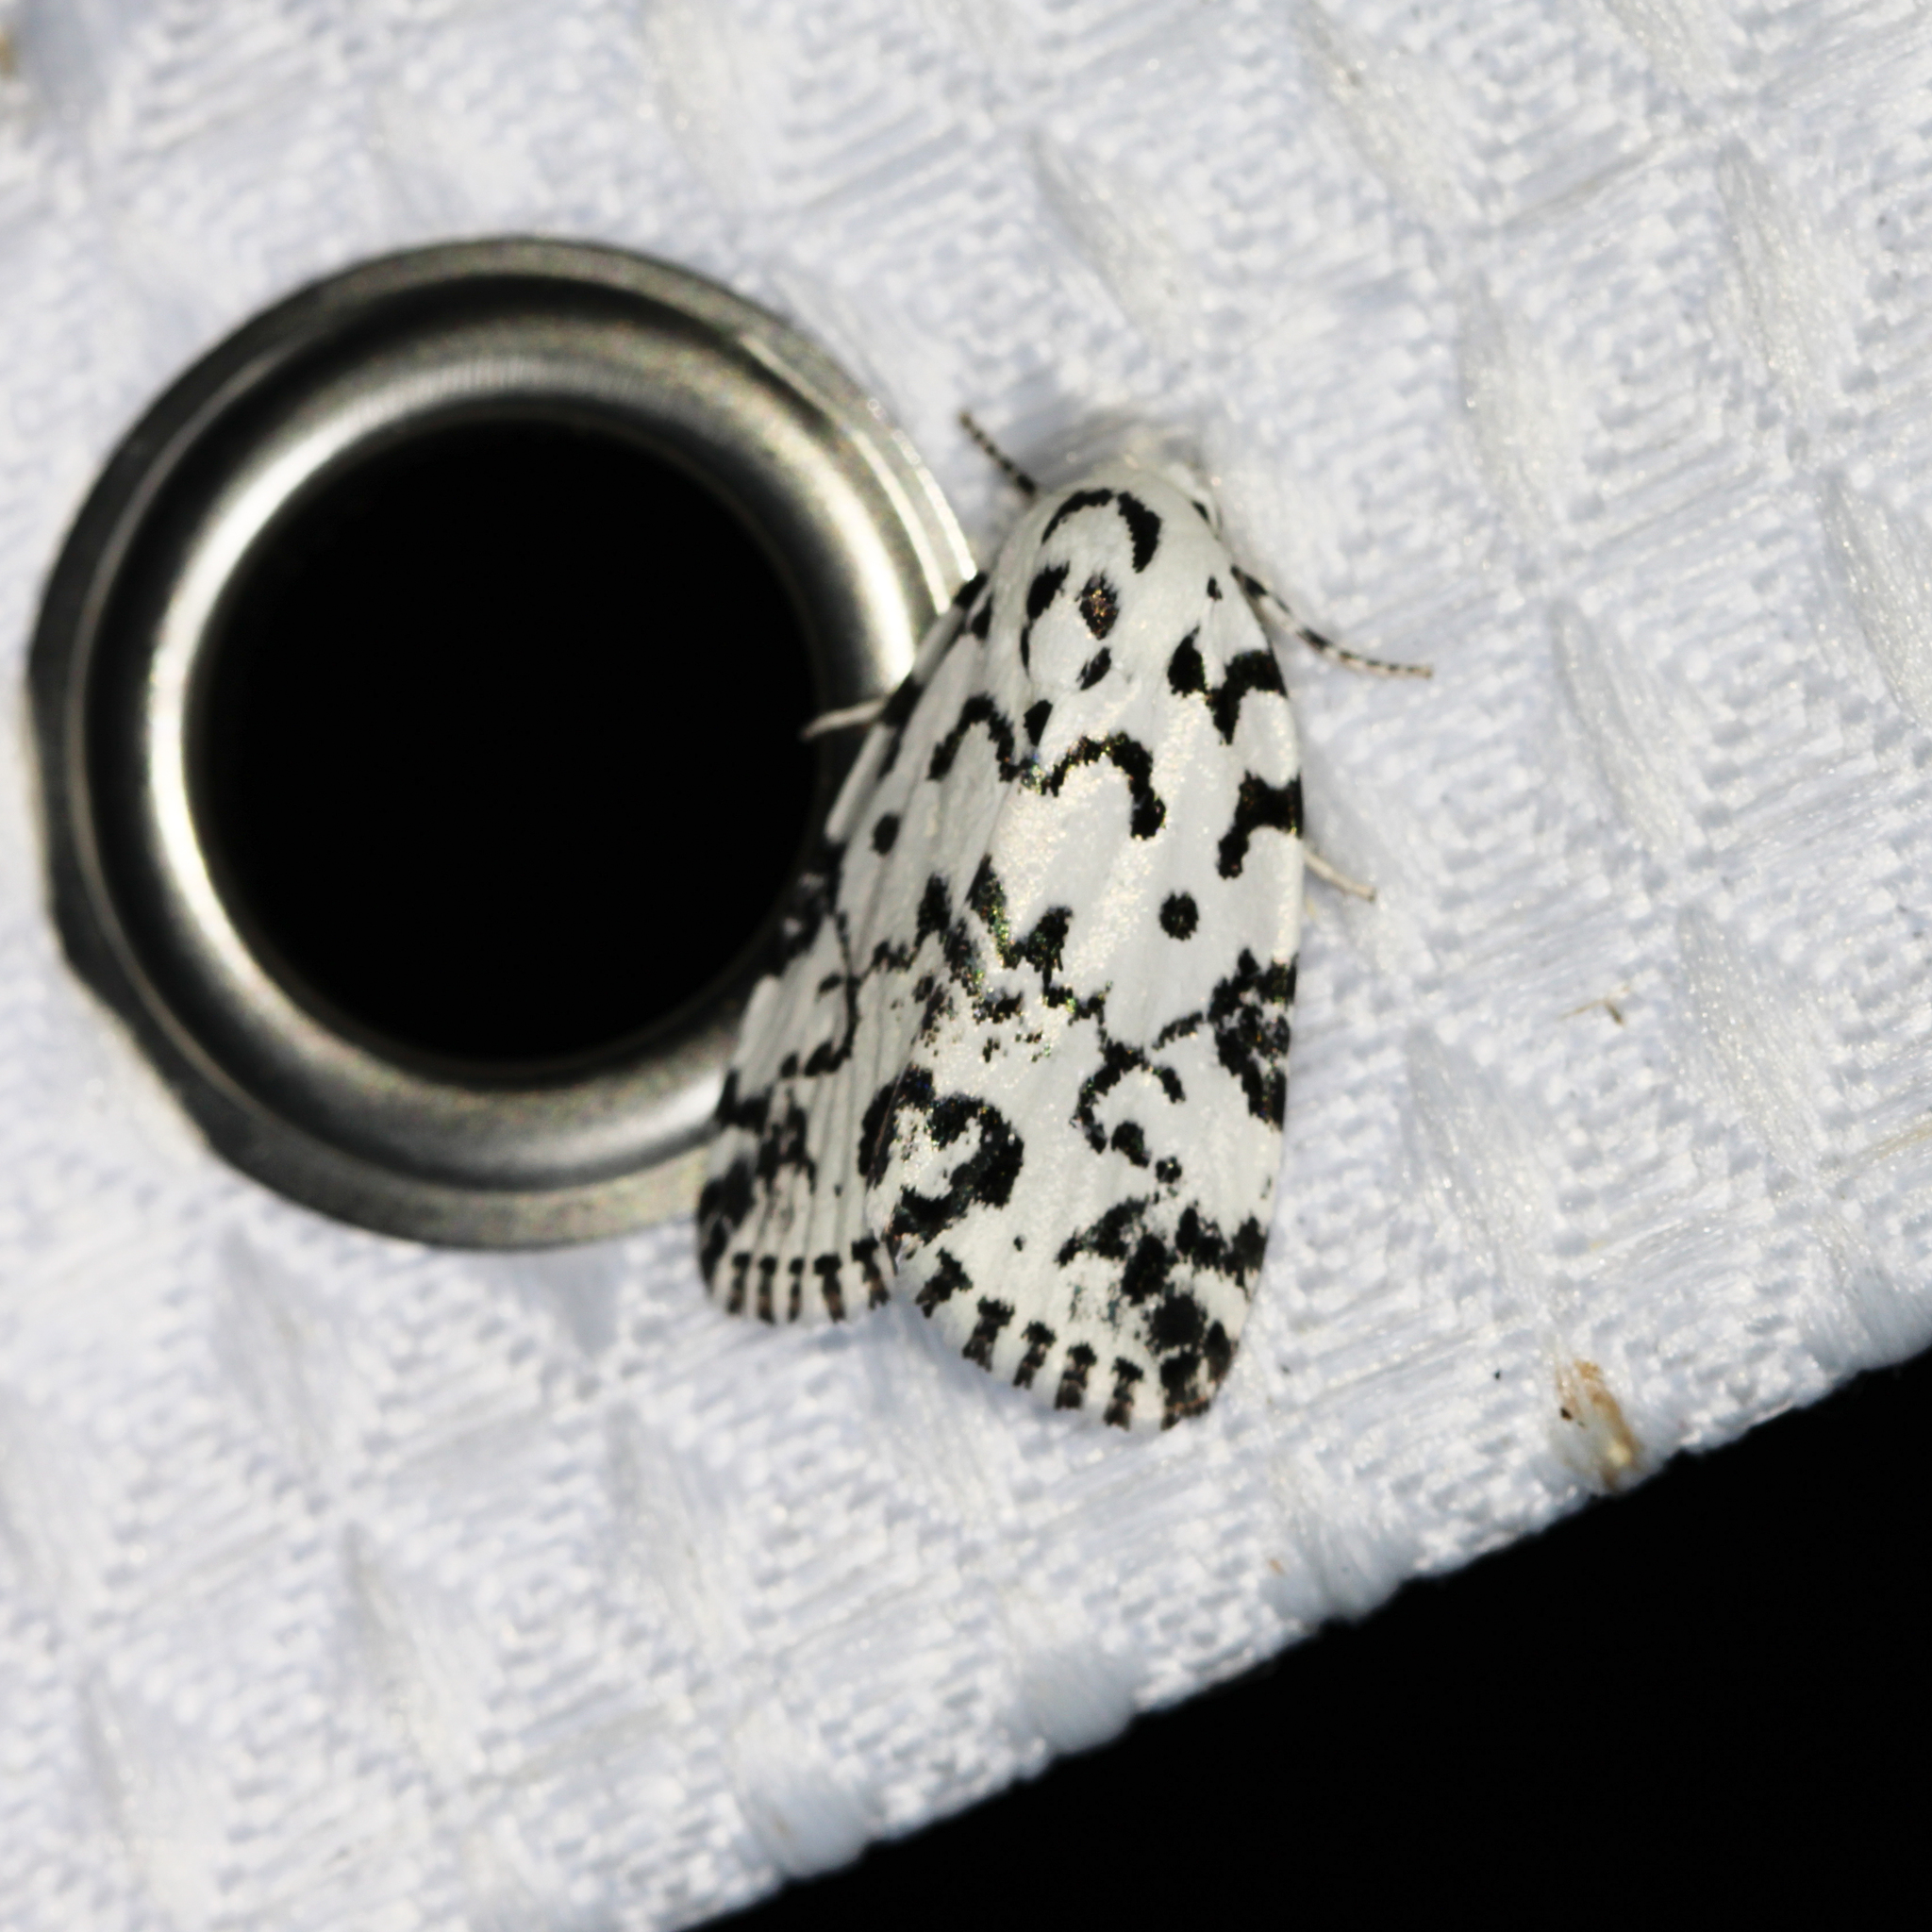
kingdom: Animalia
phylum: Arthropoda
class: Insecta
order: Lepidoptera
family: Noctuidae
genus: Polygrammate
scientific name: Polygrammate hebraeicum
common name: Hebrew moth
